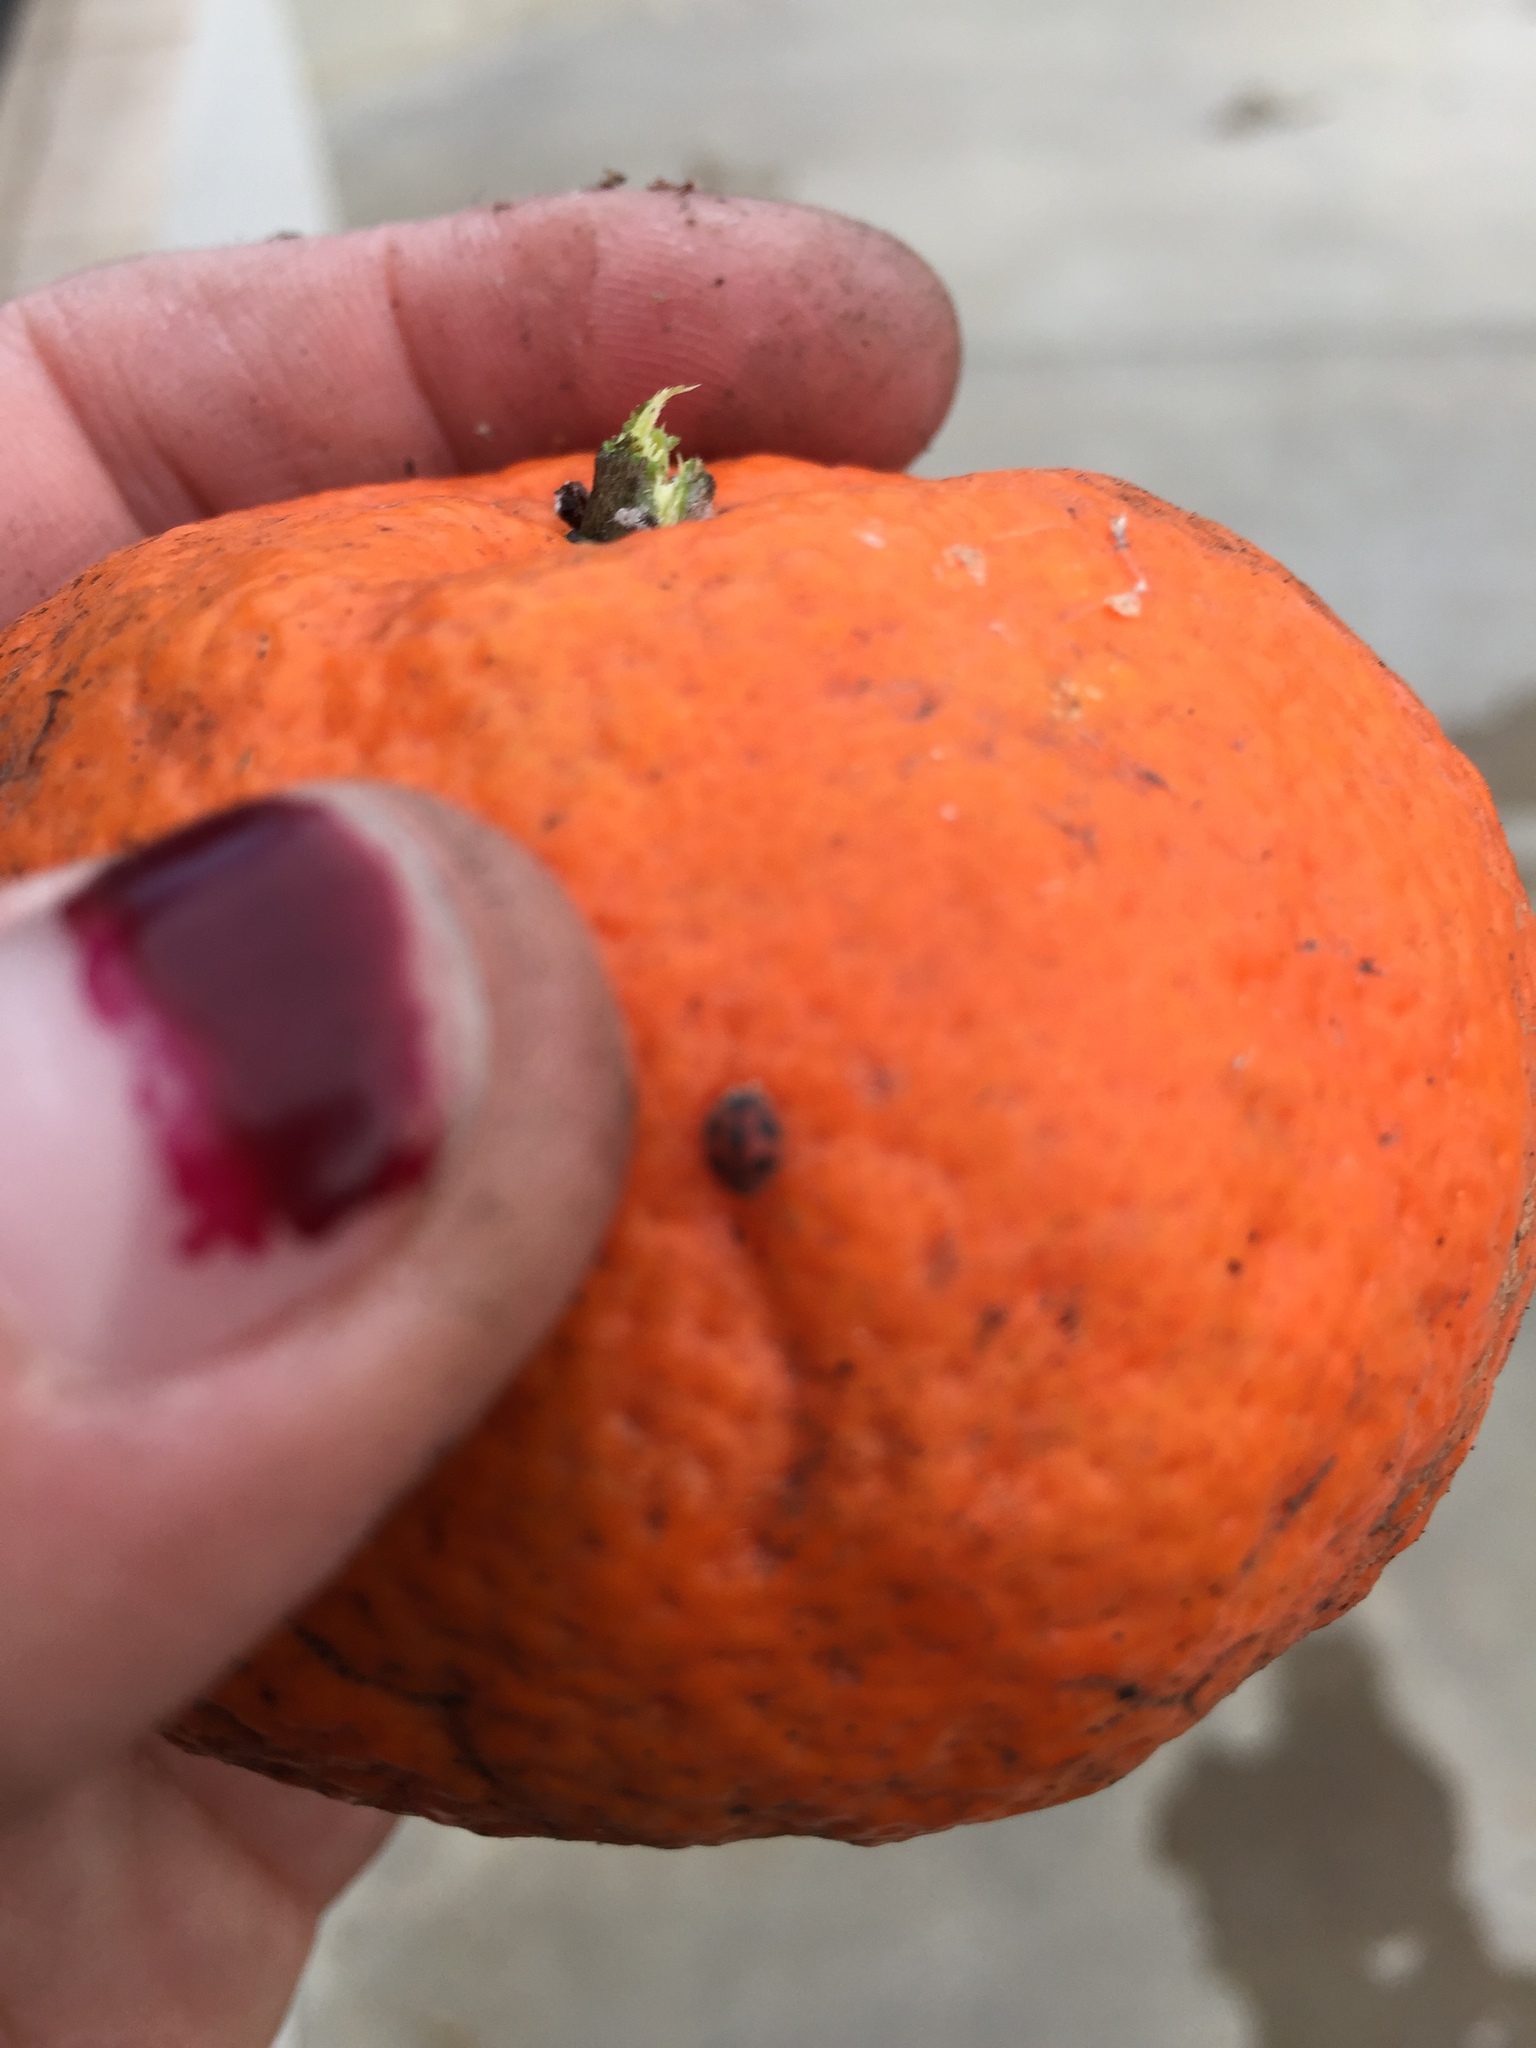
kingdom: Animalia
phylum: Arthropoda
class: Insecta
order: Coleoptera
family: Coccinellidae
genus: Novius
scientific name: Novius cardinalis
